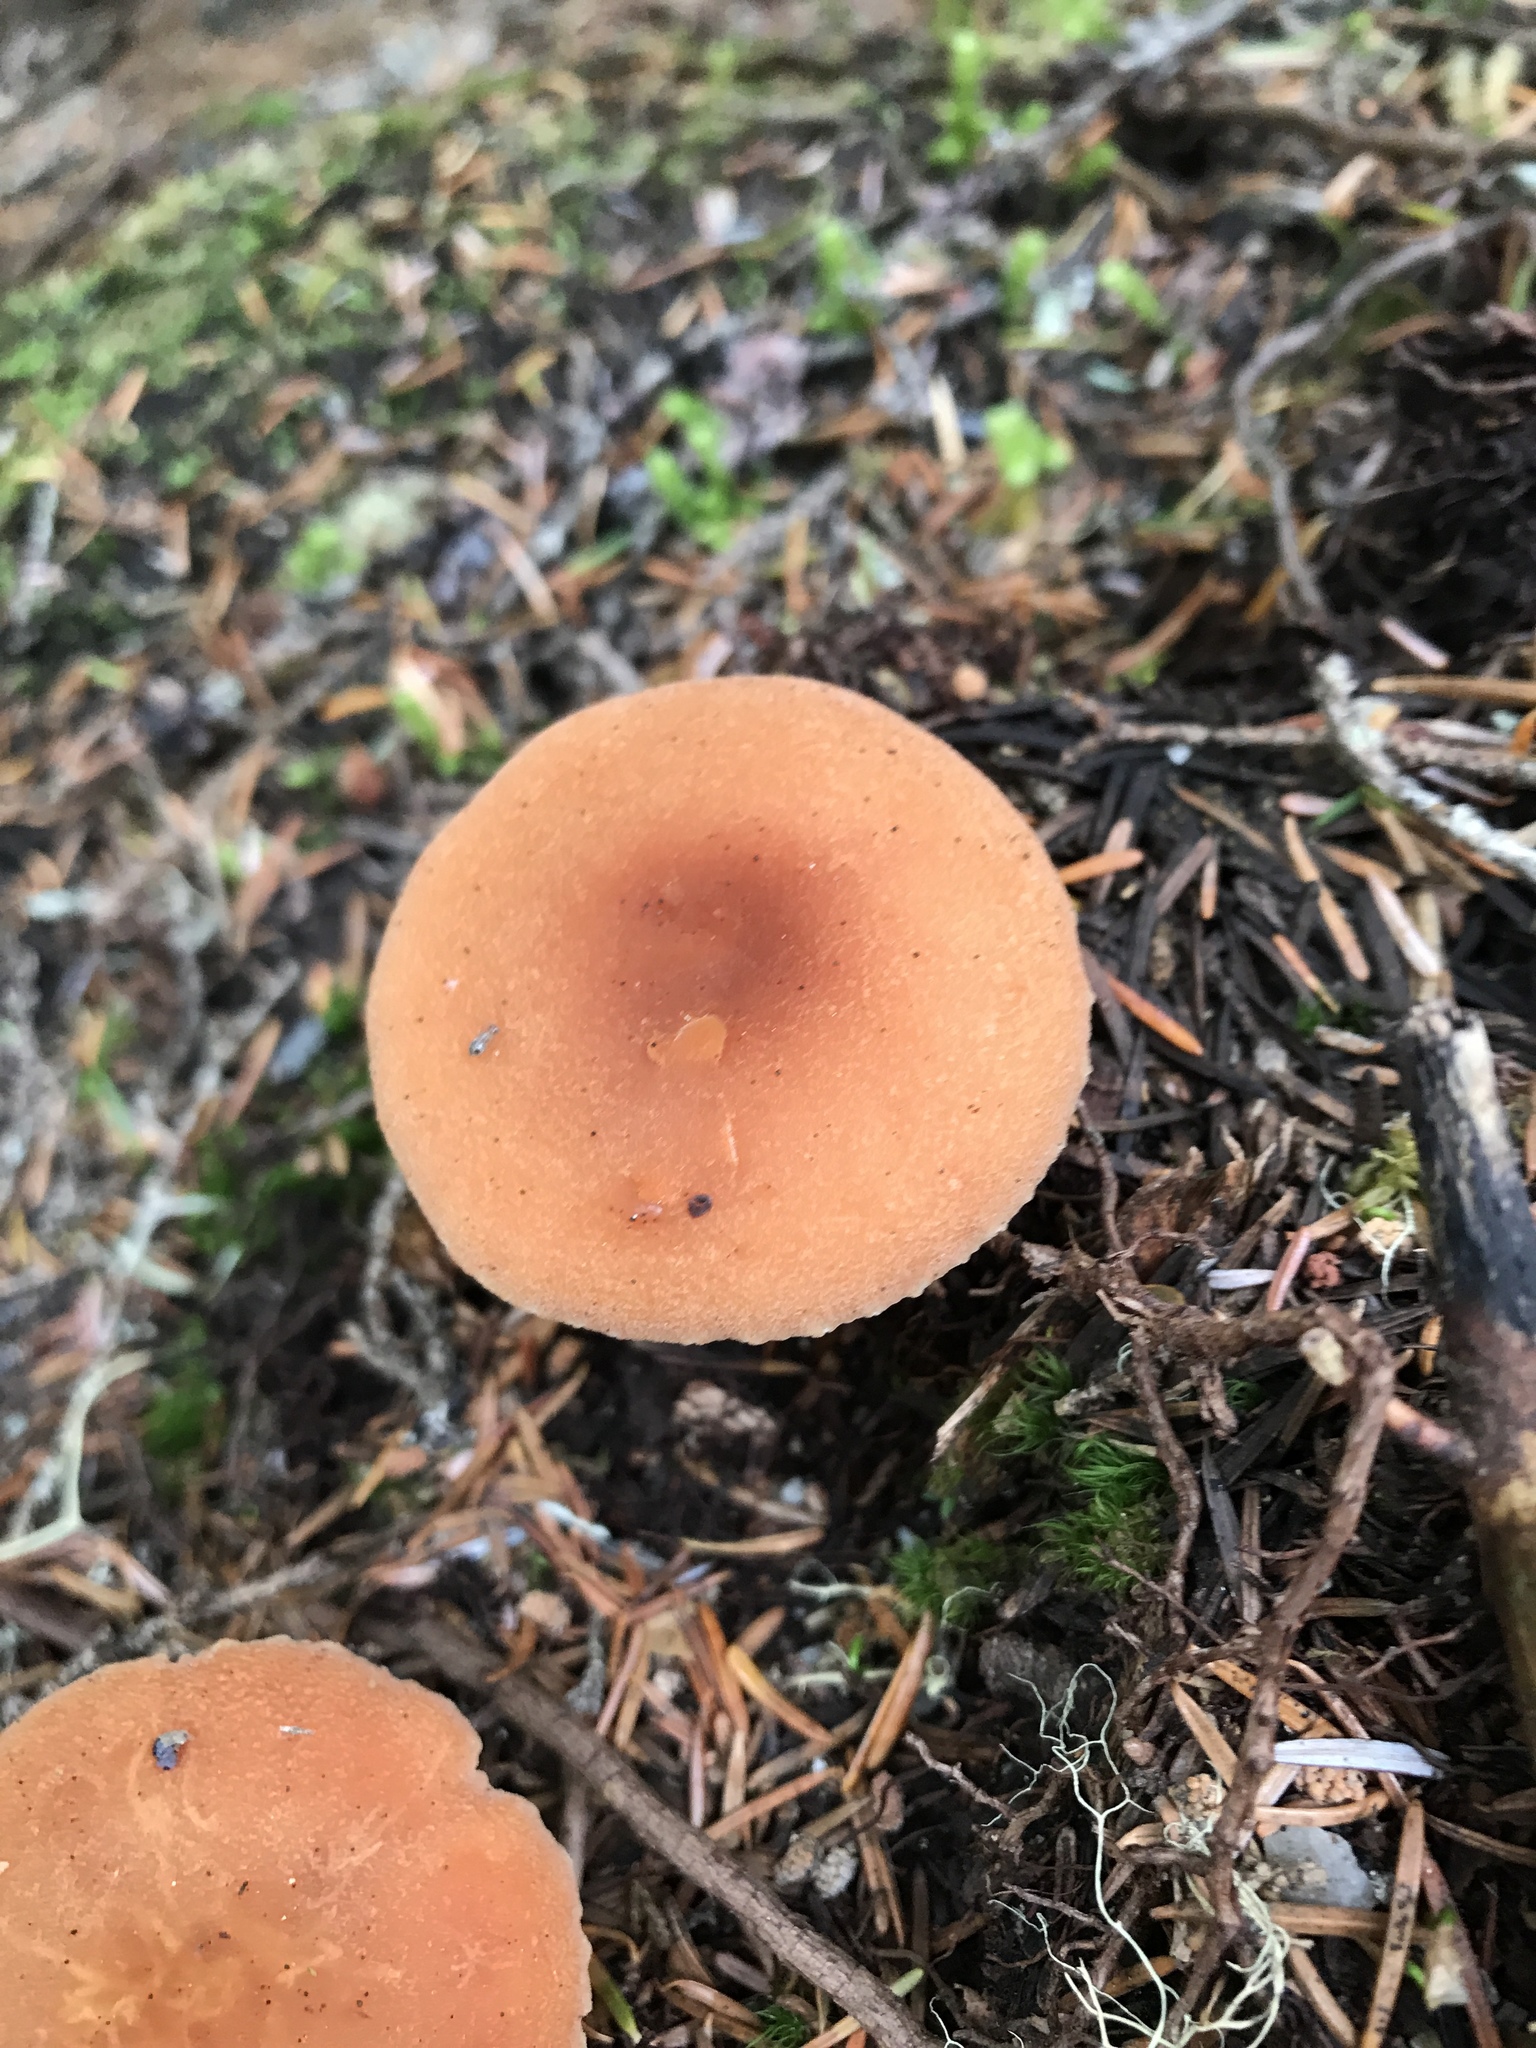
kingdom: Fungi
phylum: Basidiomycota
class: Agaricomycetes
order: Agaricales
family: Hydnangiaceae
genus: Laccaria
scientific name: Laccaria laccata
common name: Deceiver
